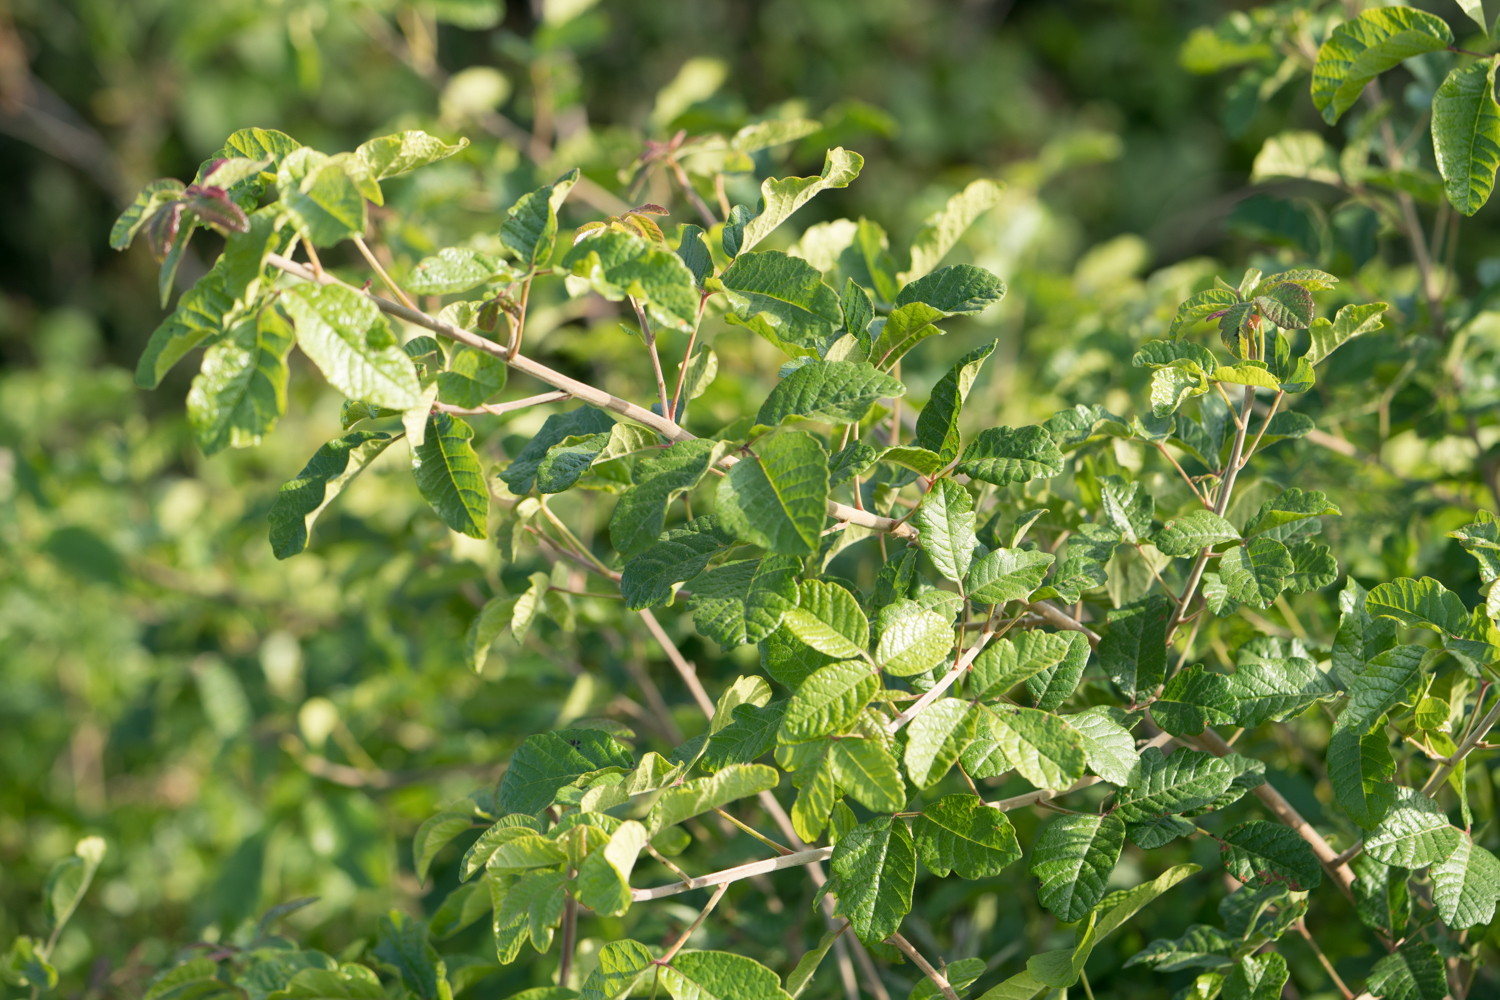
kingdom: Plantae
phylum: Tracheophyta
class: Magnoliopsida
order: Sapindales
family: Anacardiaceae
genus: Toxicodendron
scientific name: Toxicodendron diversilobum
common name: Pacific poison-oak
